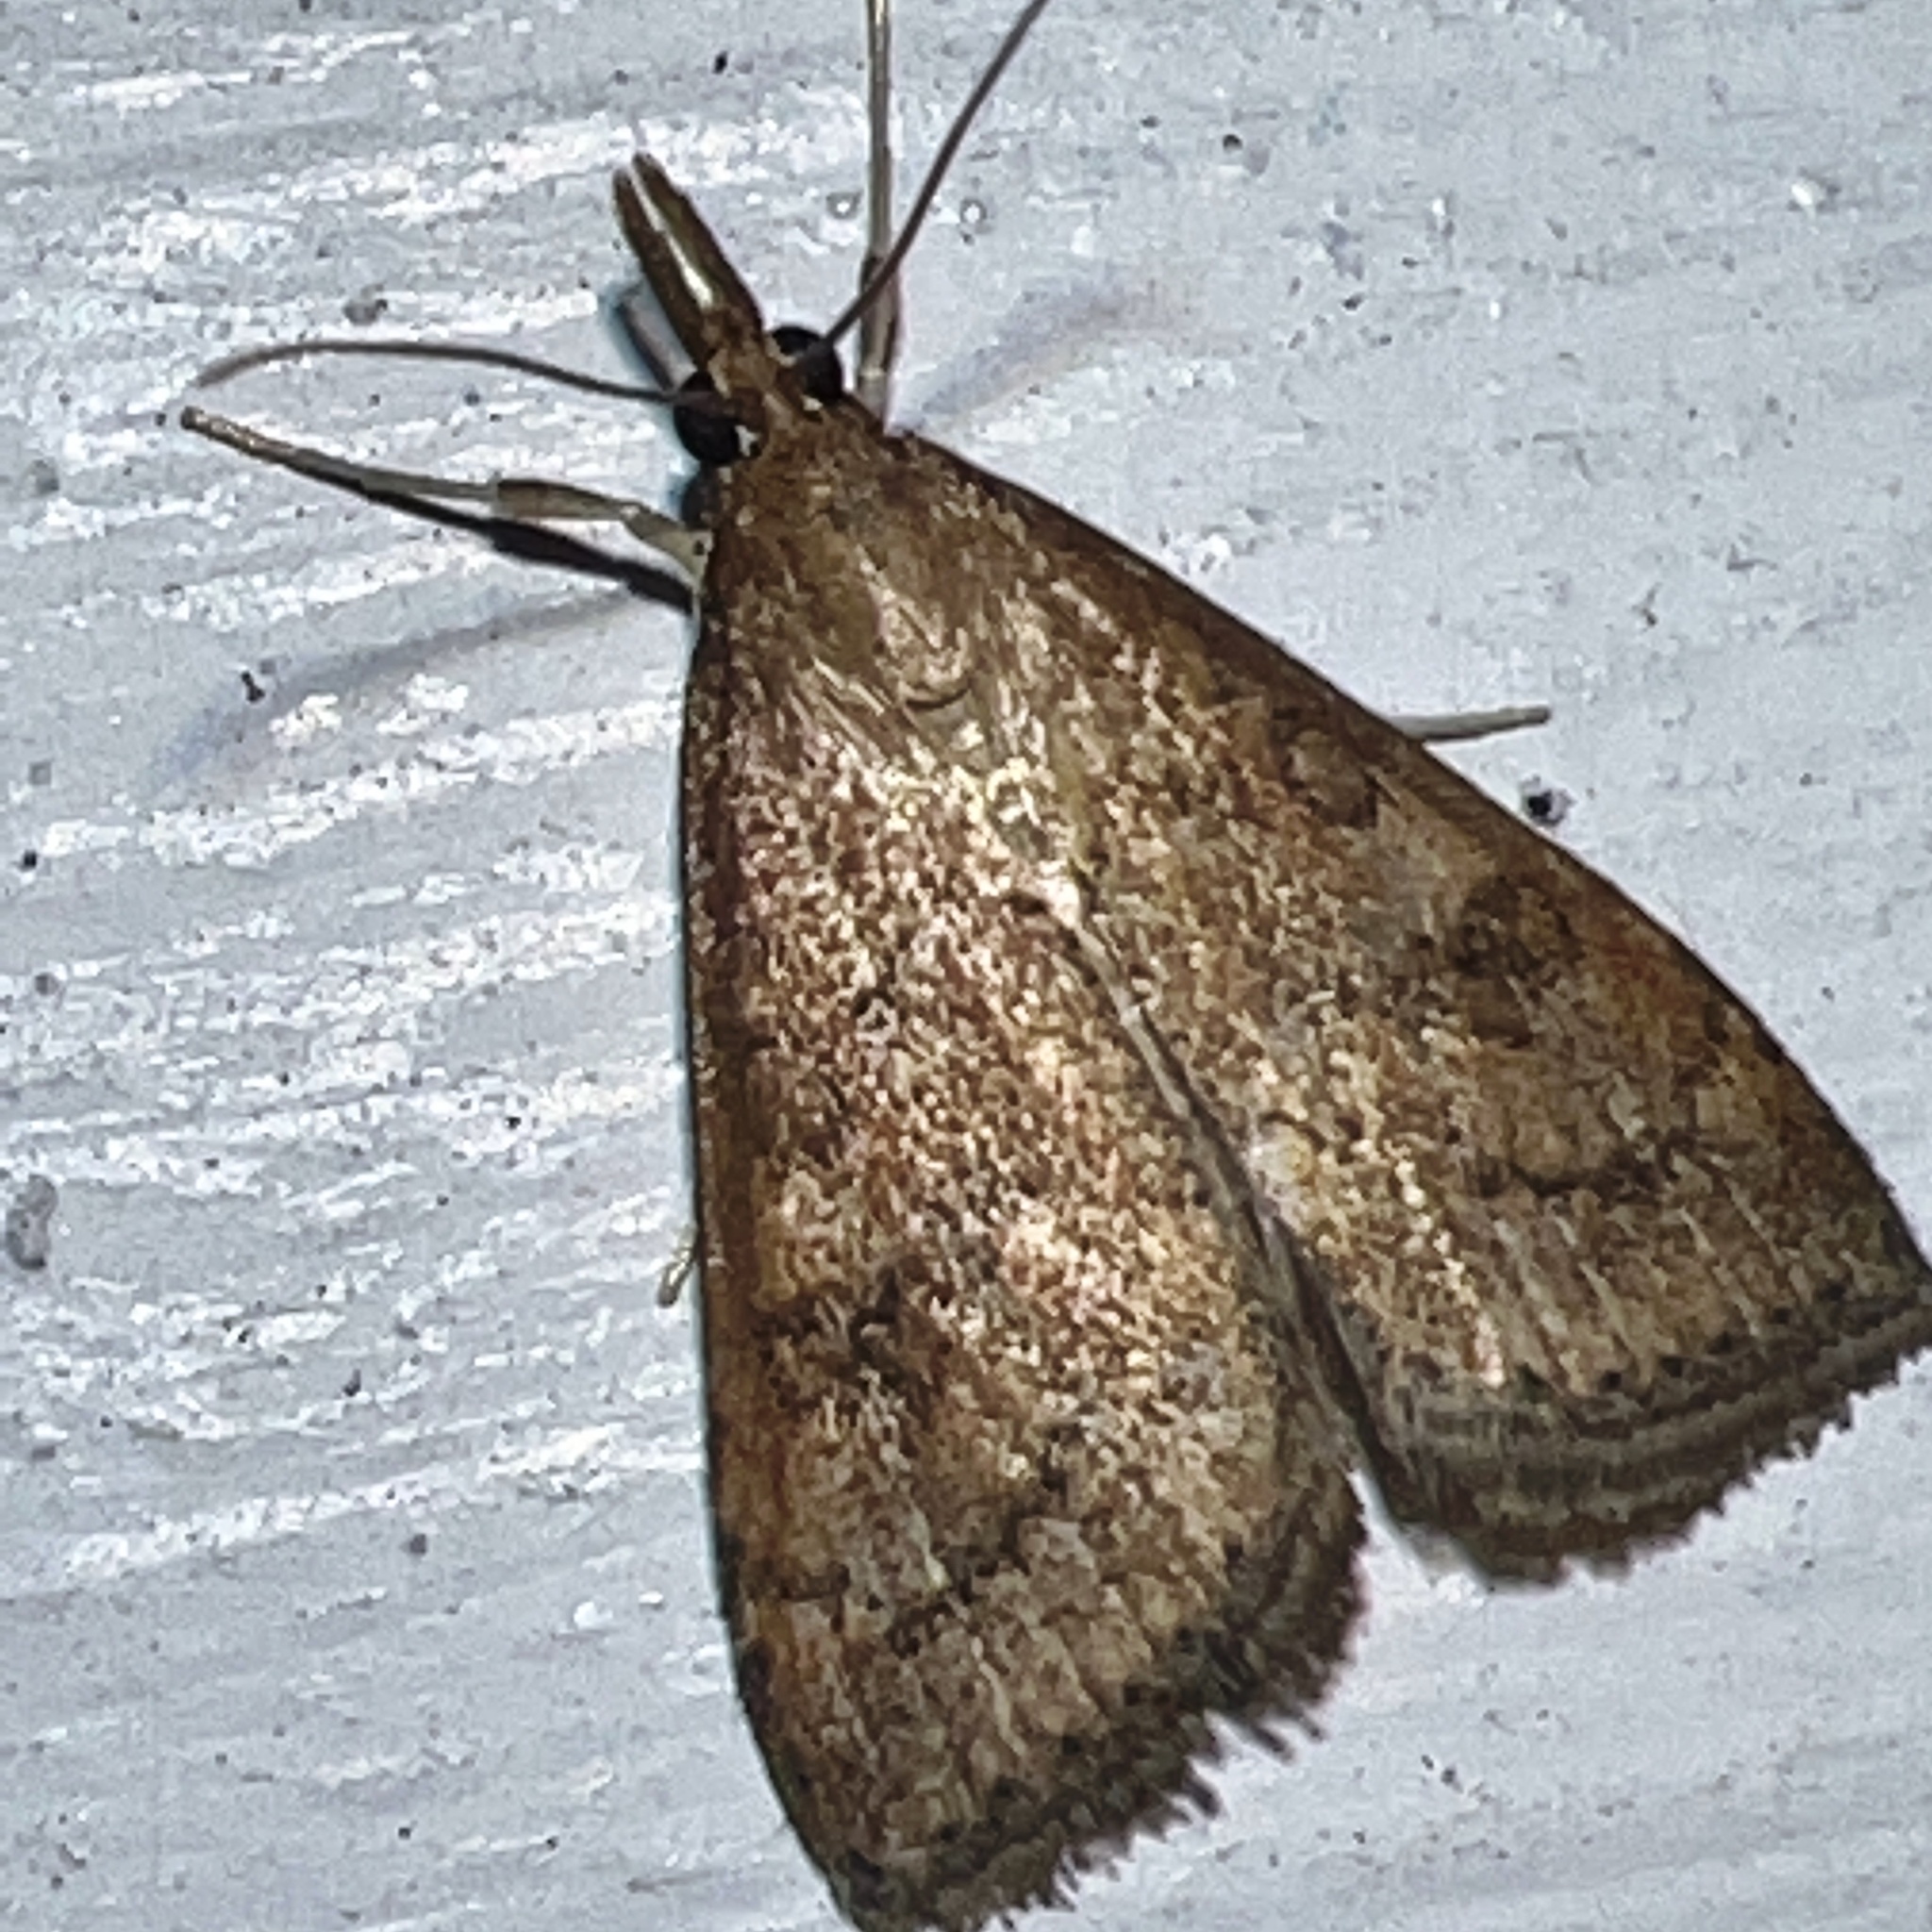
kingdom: Animalia
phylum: Arthropoda
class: Insecta
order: Lepidoptera
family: Crambidae
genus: Udea
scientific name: Udea rubigalis
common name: Celery leaftier moth
